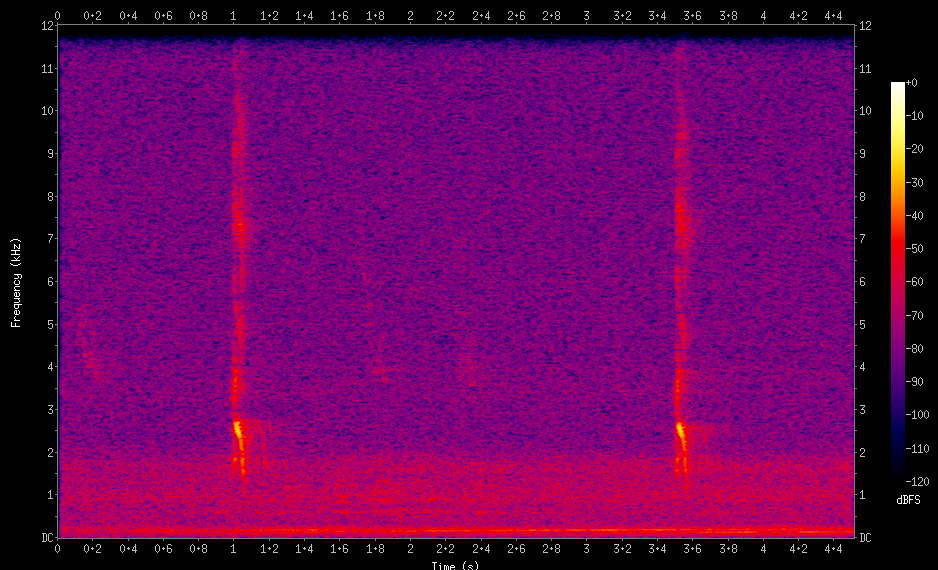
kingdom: Animalia
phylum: Chordata
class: Aves
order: Piciformes
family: Picidae
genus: Colaptes
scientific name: Colaptes melanochloros
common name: Green-barred woodpecker
